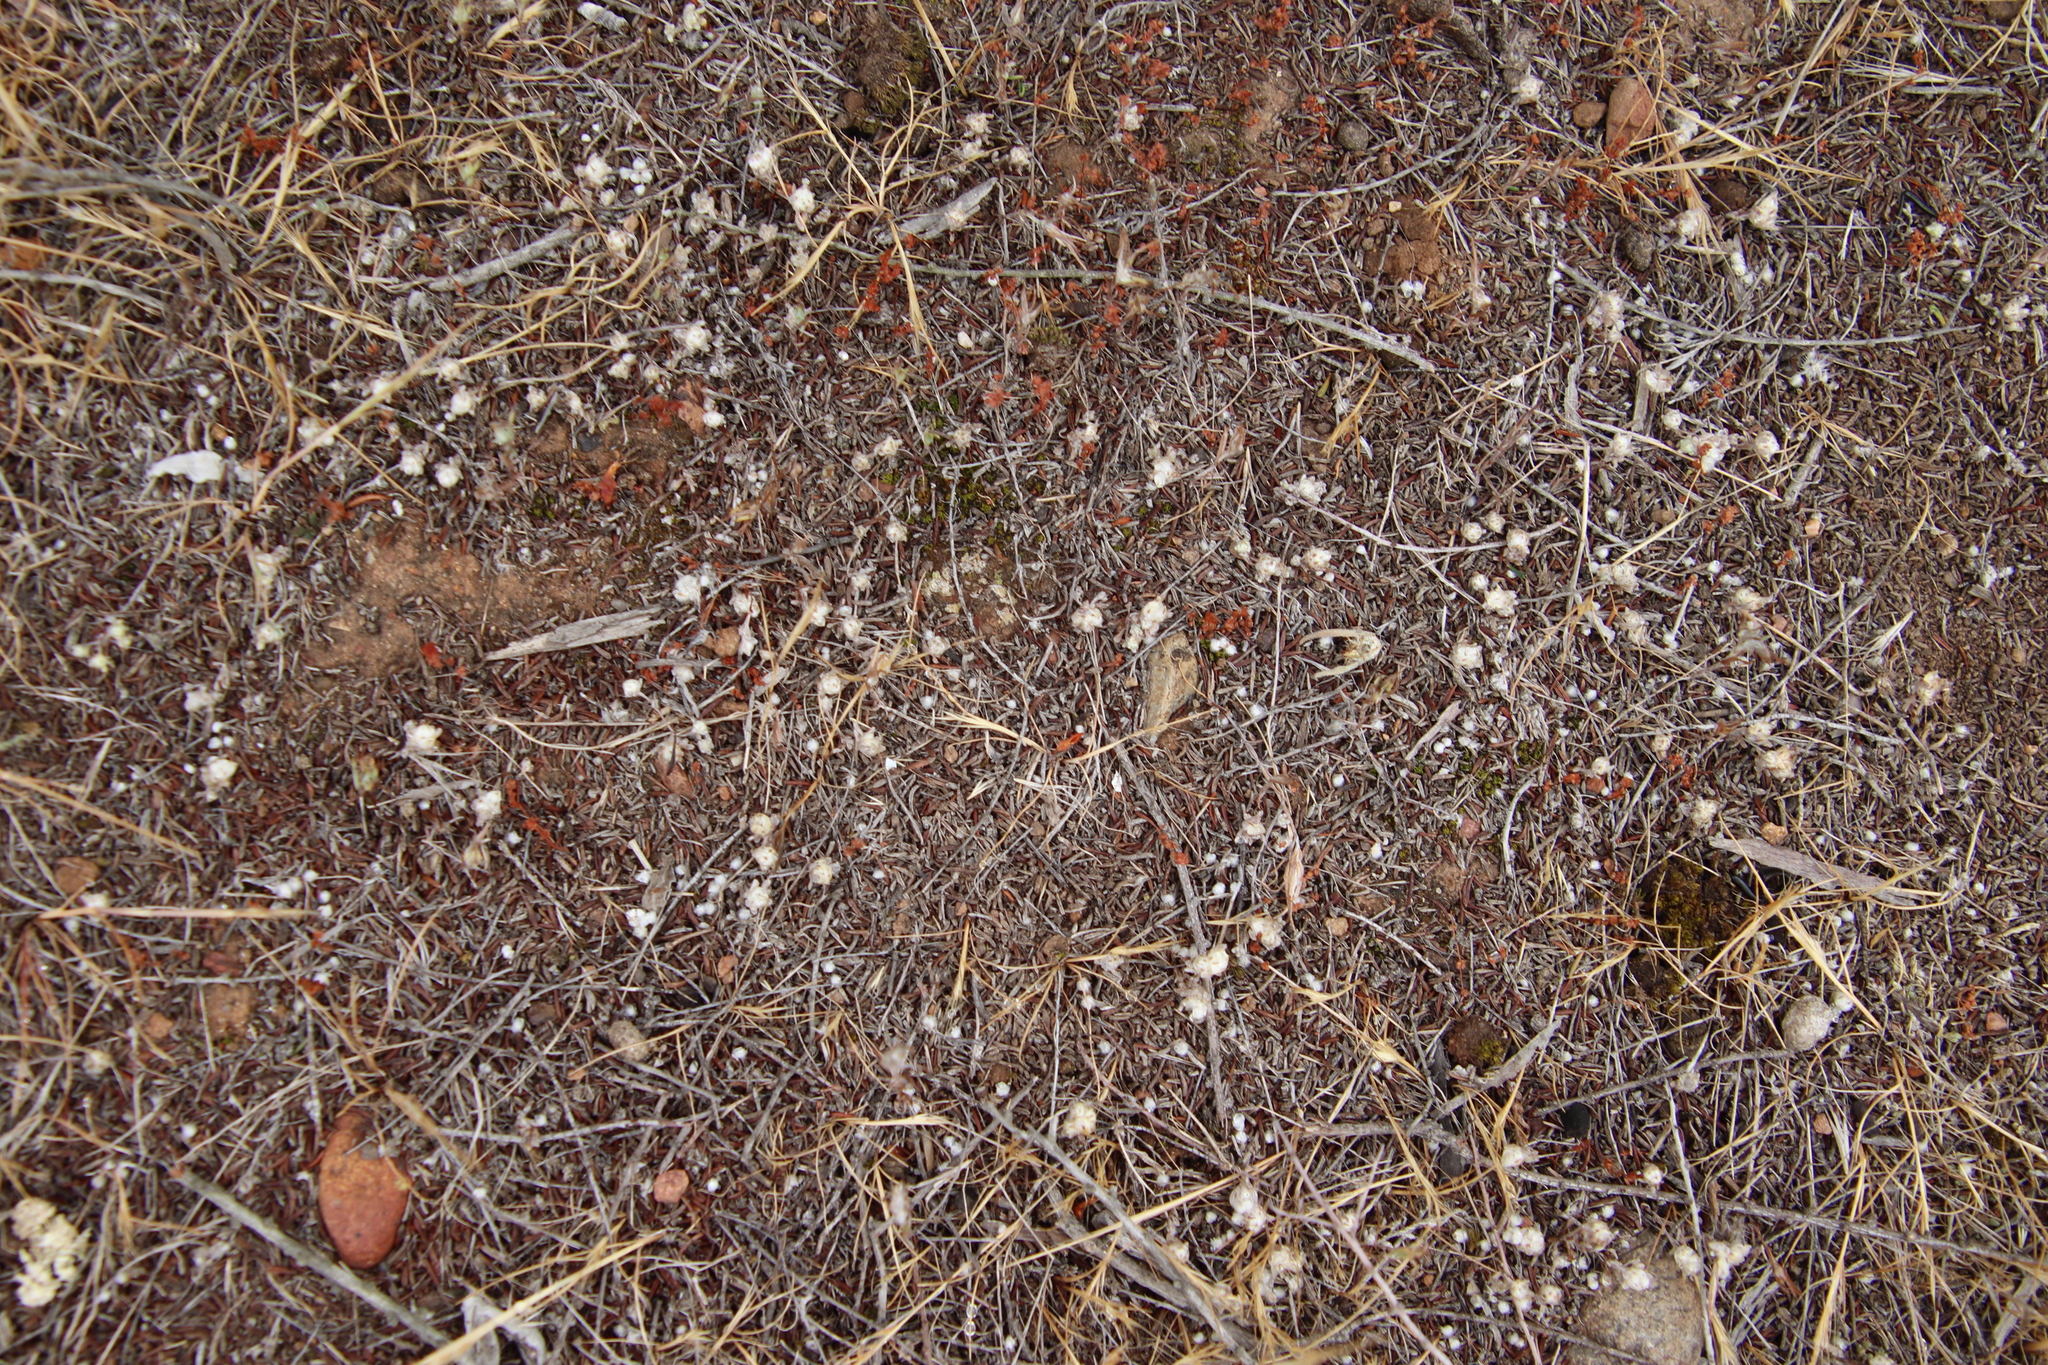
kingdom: Plantae
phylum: Tracheophyta
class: Magnoliopsida
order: Asterales
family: Asteraceae
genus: Stylocline
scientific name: Stylocline gnaphaloides
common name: Everlasting nest-straw
